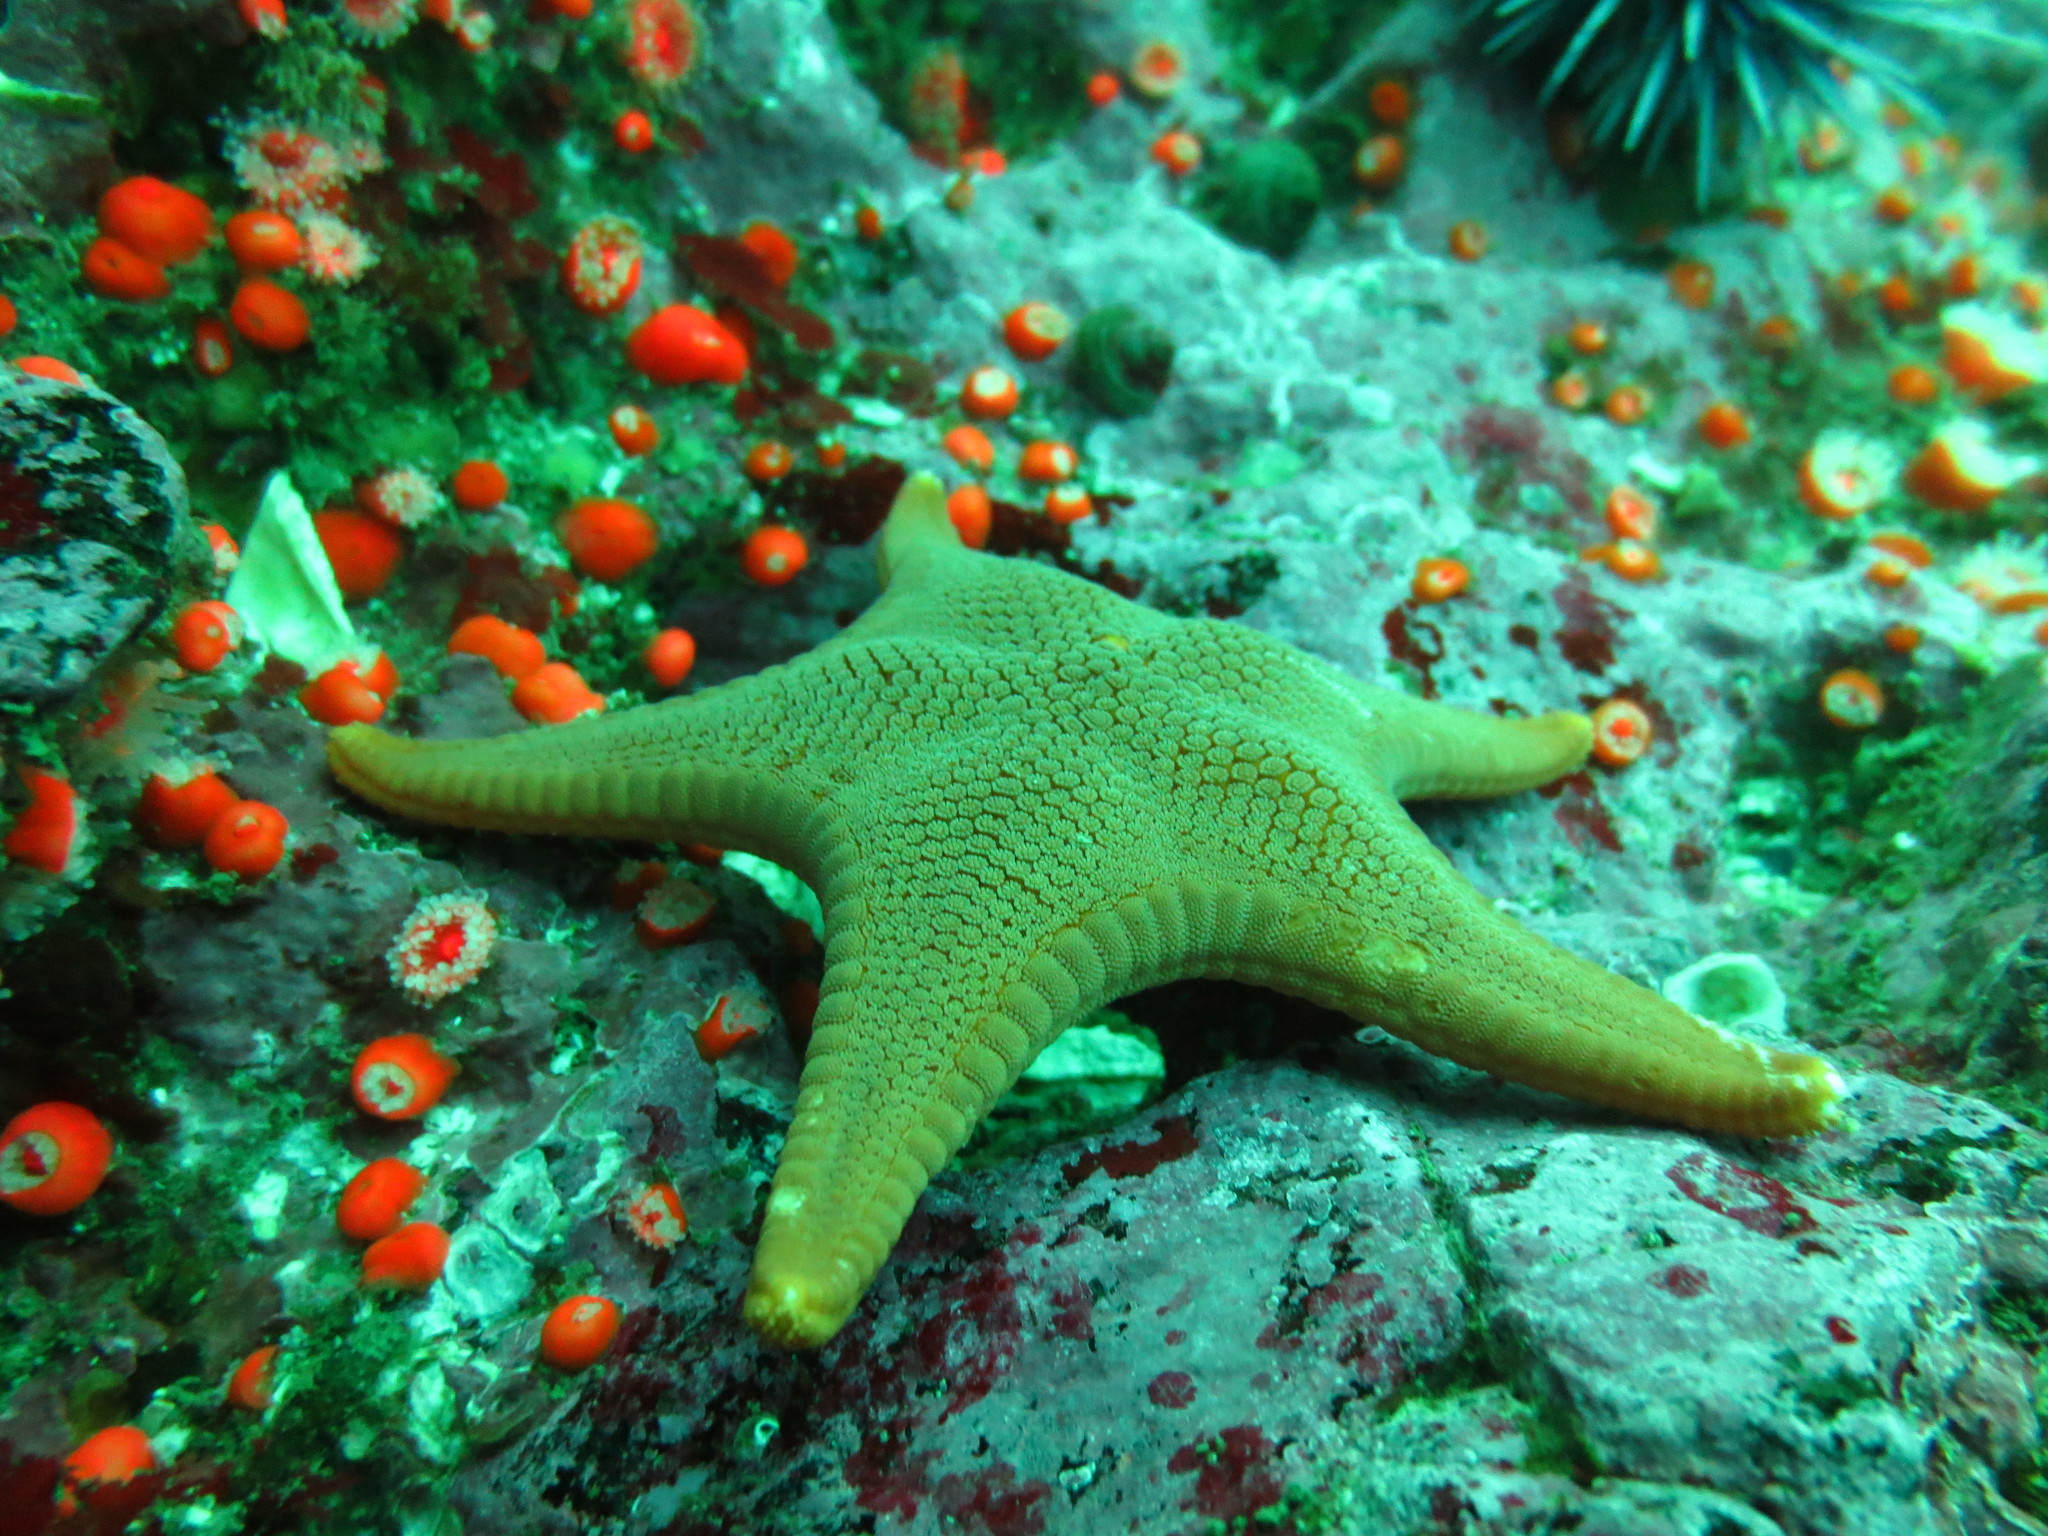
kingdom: Animalia
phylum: Echinodermata
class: Asteroidea
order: Valvatida
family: Goniasteridae
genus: Mediaster
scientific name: Mediaster aequalis
